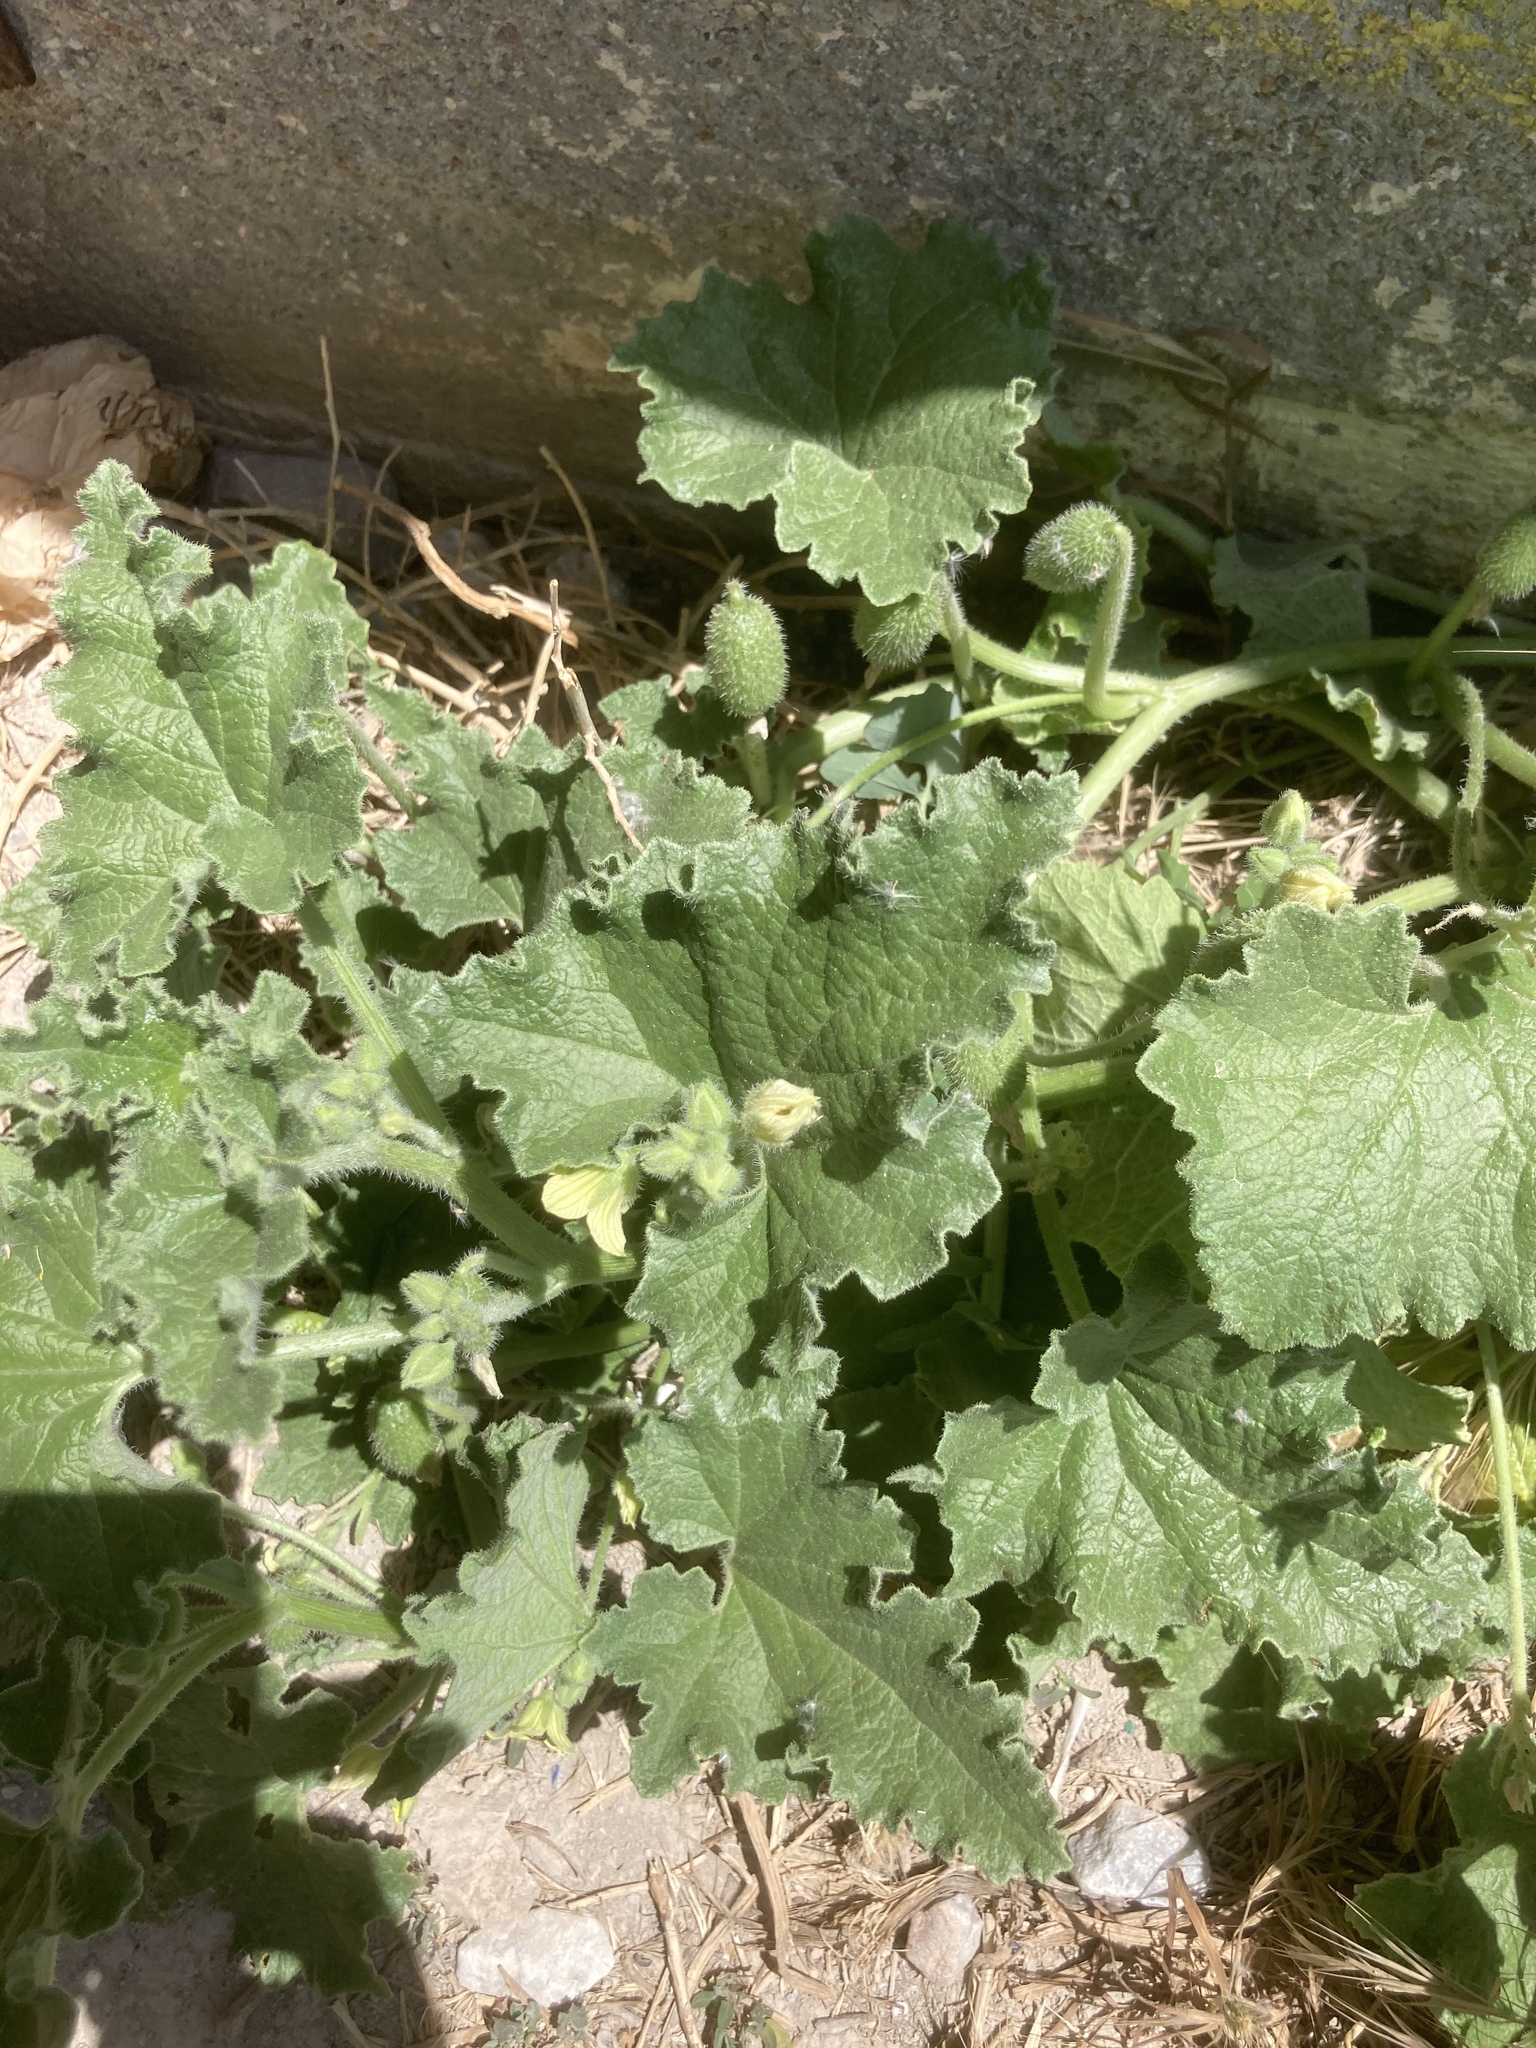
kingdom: Plantae
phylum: Tracheophyta
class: Magnoliopsida
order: Cucurbitales
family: Cucurbitaceae
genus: Ecballium
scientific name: Ecballium elaterium
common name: Squirting cucumber
